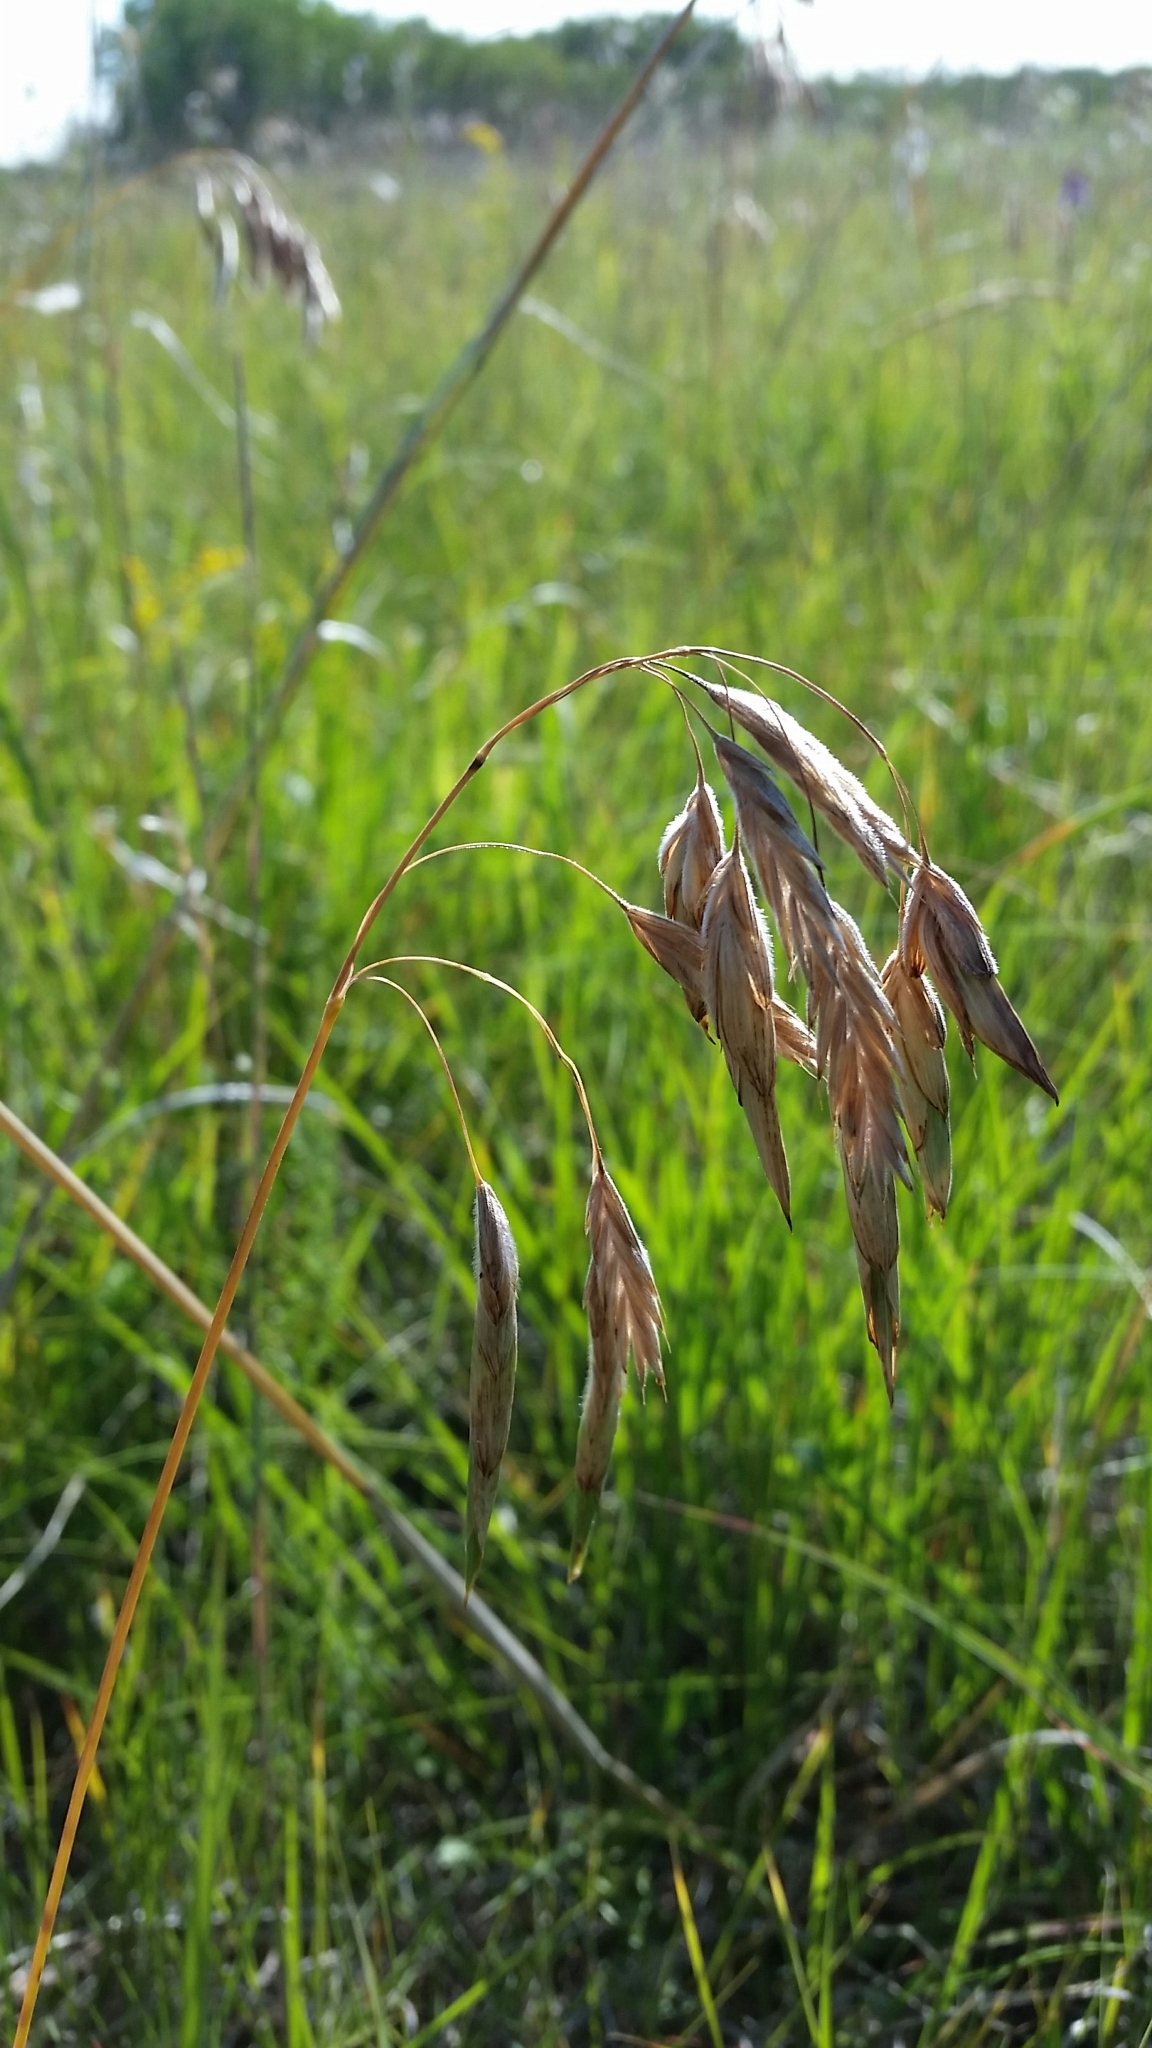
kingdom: Plantae
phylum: Tracheophyta
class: Liliopsida
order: Poales
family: Poaceae
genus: Bromus
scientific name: Bromus porteri
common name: Nodding brome
